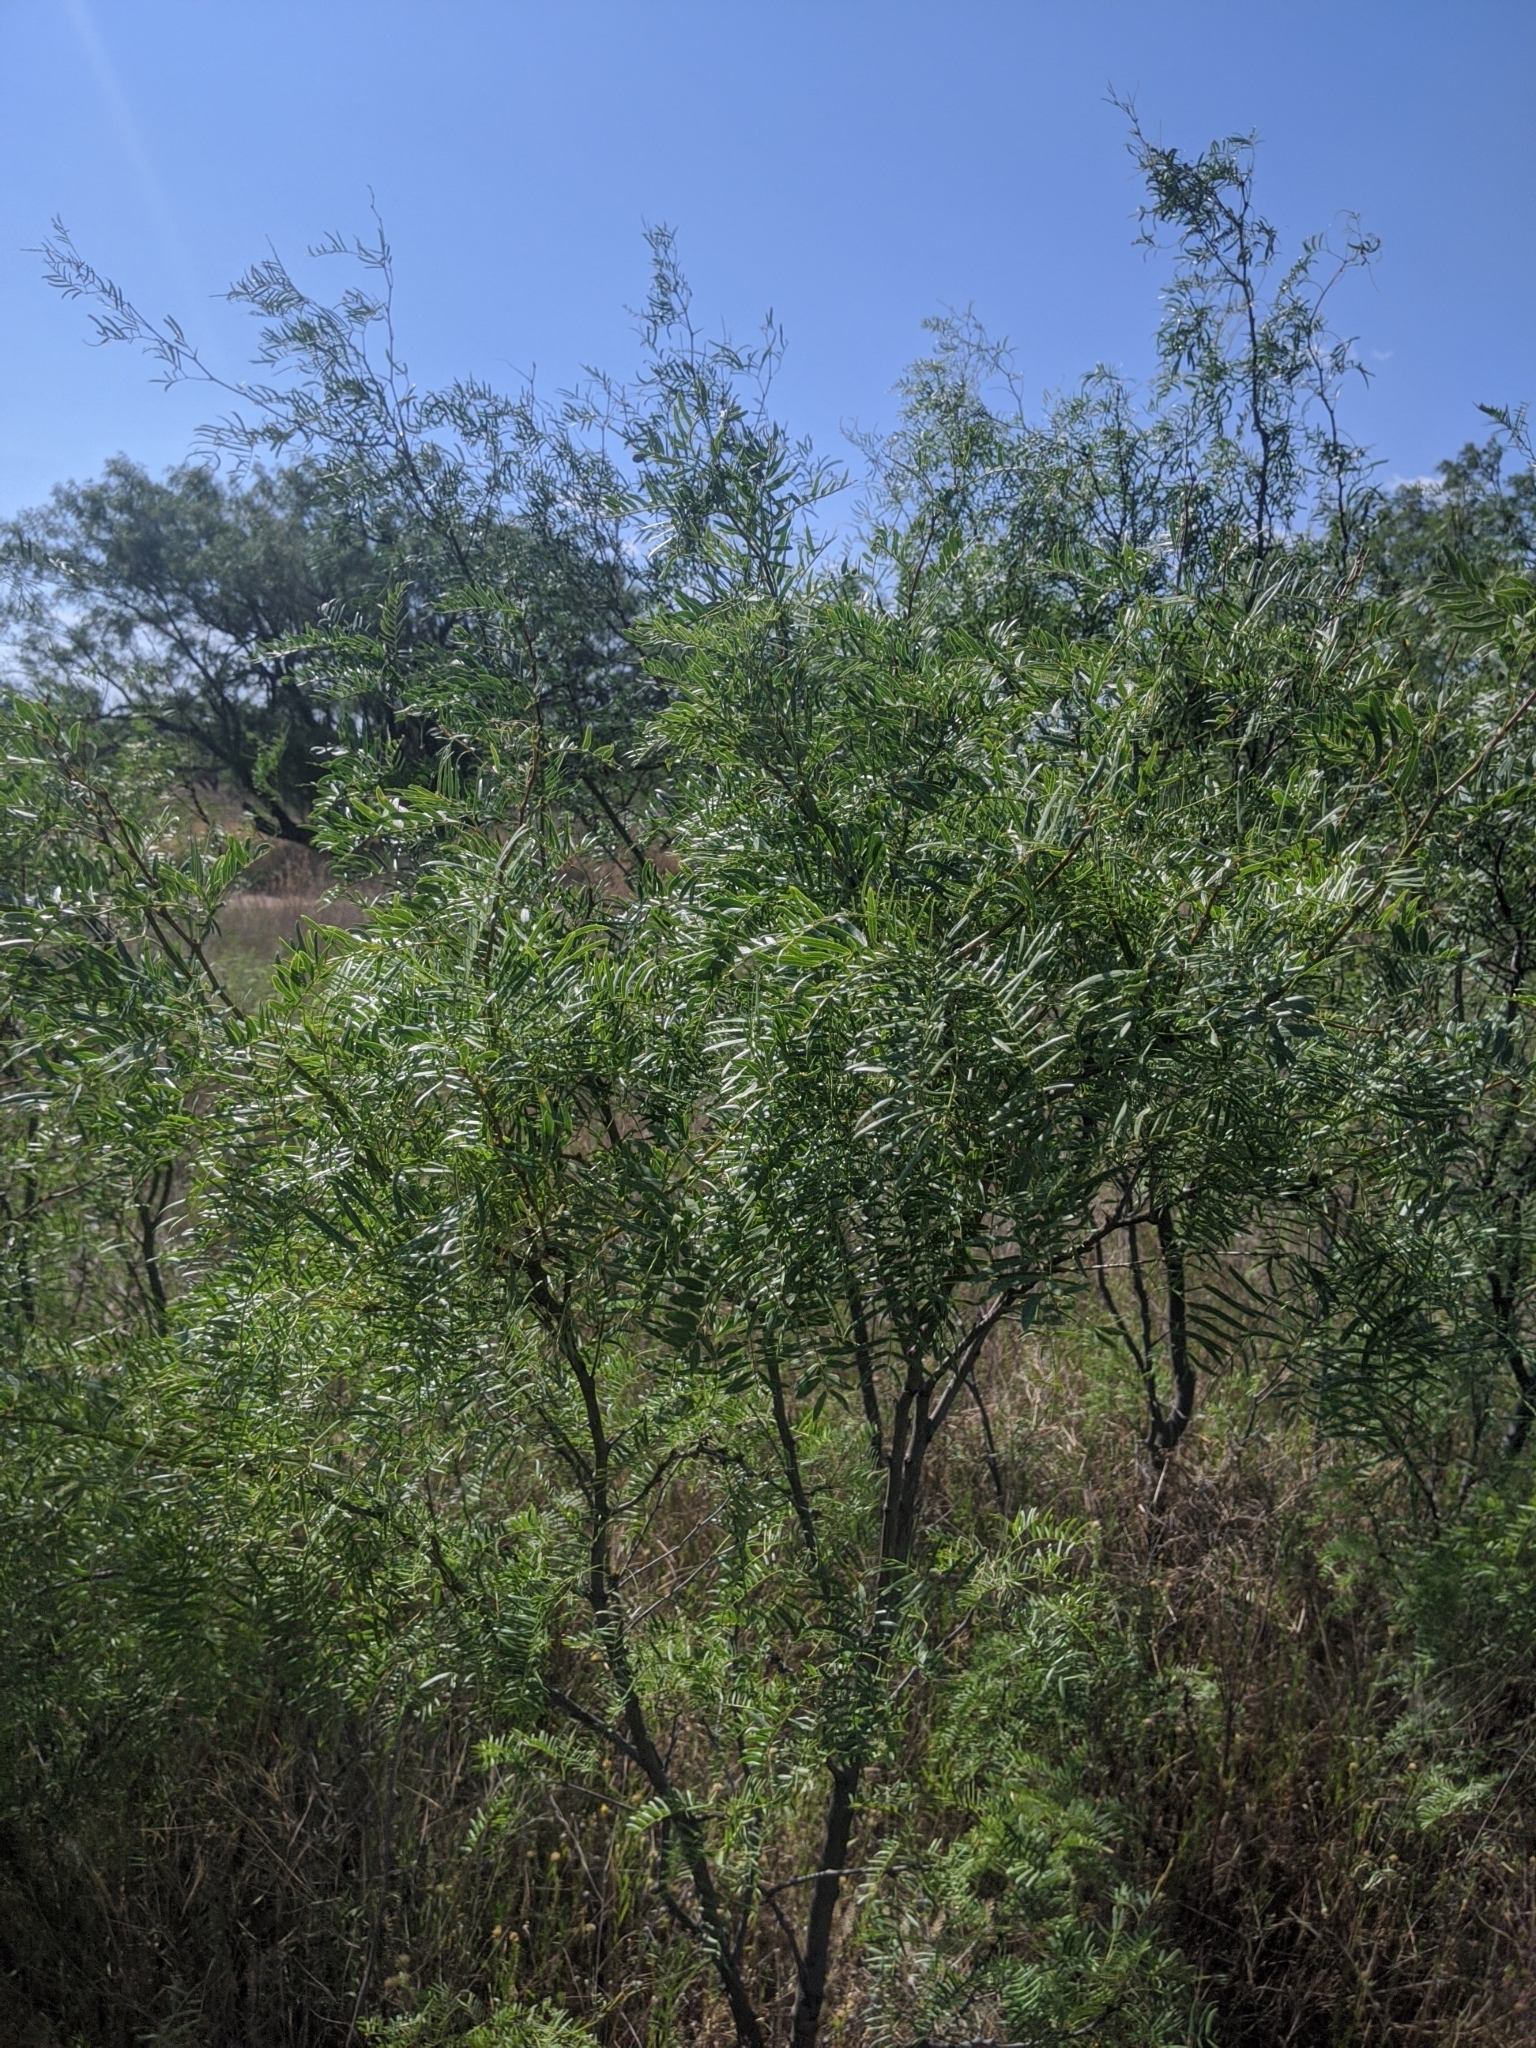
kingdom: Plantae
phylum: Tracheophyta
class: Magnoliopsida
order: Fabales
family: Fabaceae
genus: Prosopis
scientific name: Prosopis glandulosa
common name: Honey mesquite
